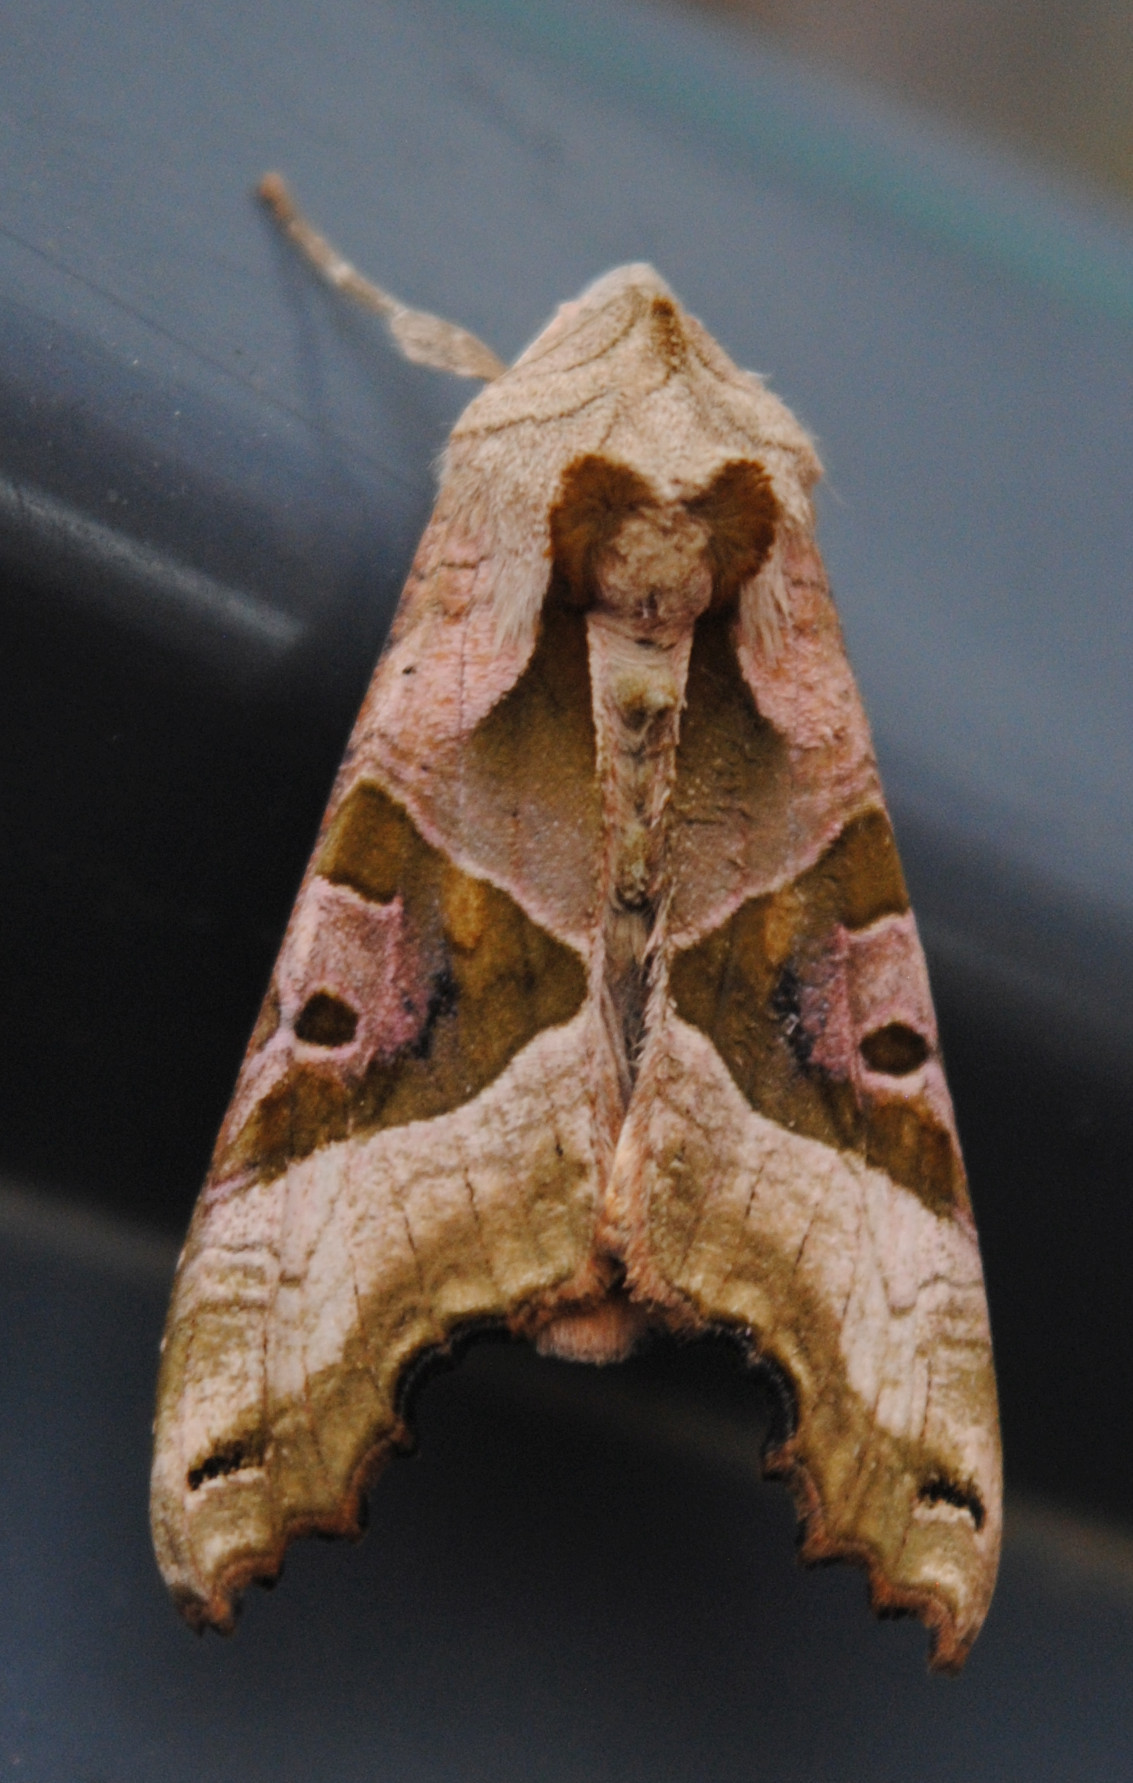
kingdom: Animalia
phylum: Arthropoda
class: Insecta
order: Lepidoptera
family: Noctuidae
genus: Phlogophora
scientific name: Phlogophora meticulosa
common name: Angle shades
